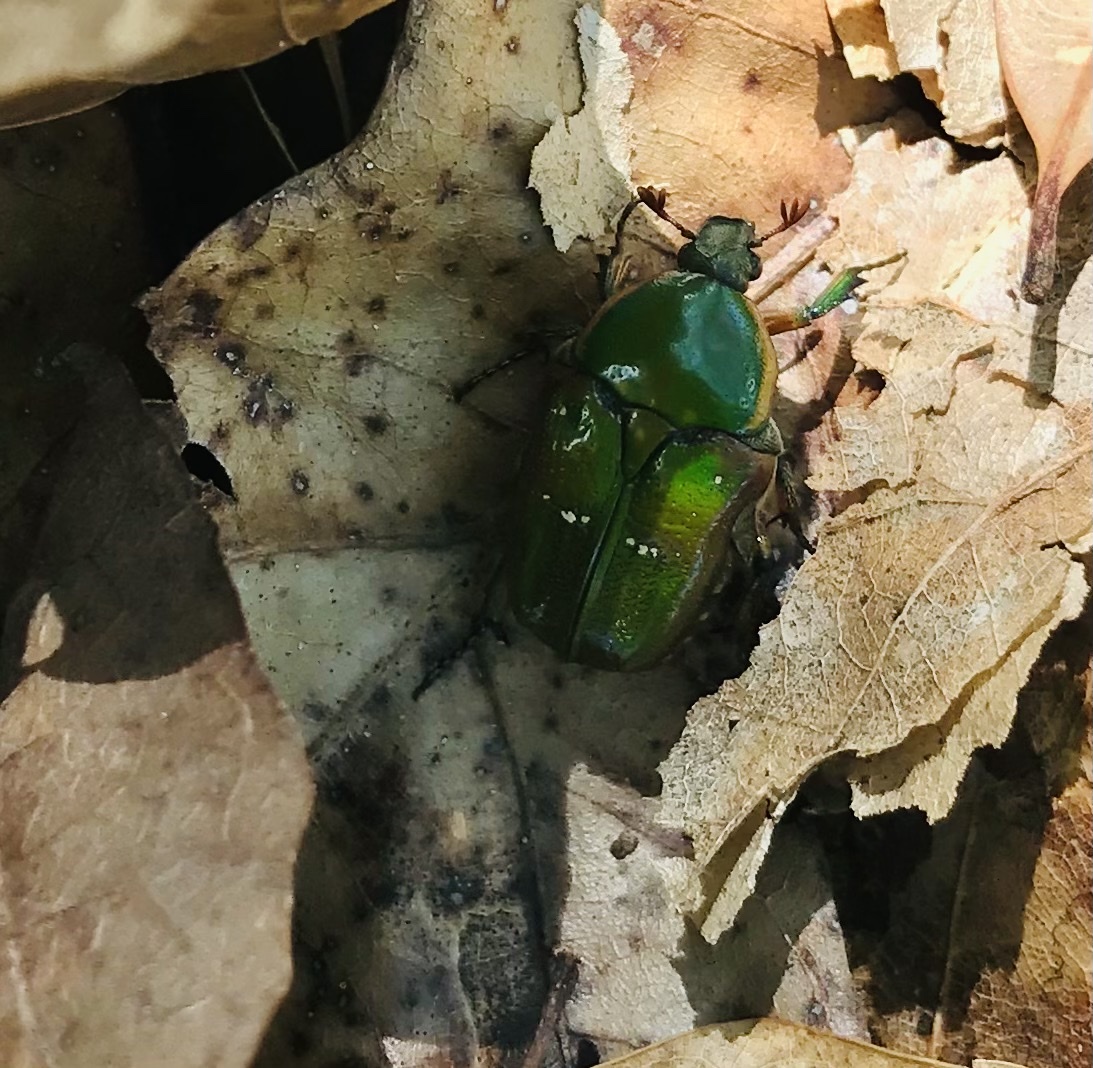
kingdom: Animalia
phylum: Arthropoda
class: Insecta
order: Coleoptera
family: Scarabaeidae
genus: Euphoria
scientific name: Euphoria fulgida
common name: Emerald euphoria
